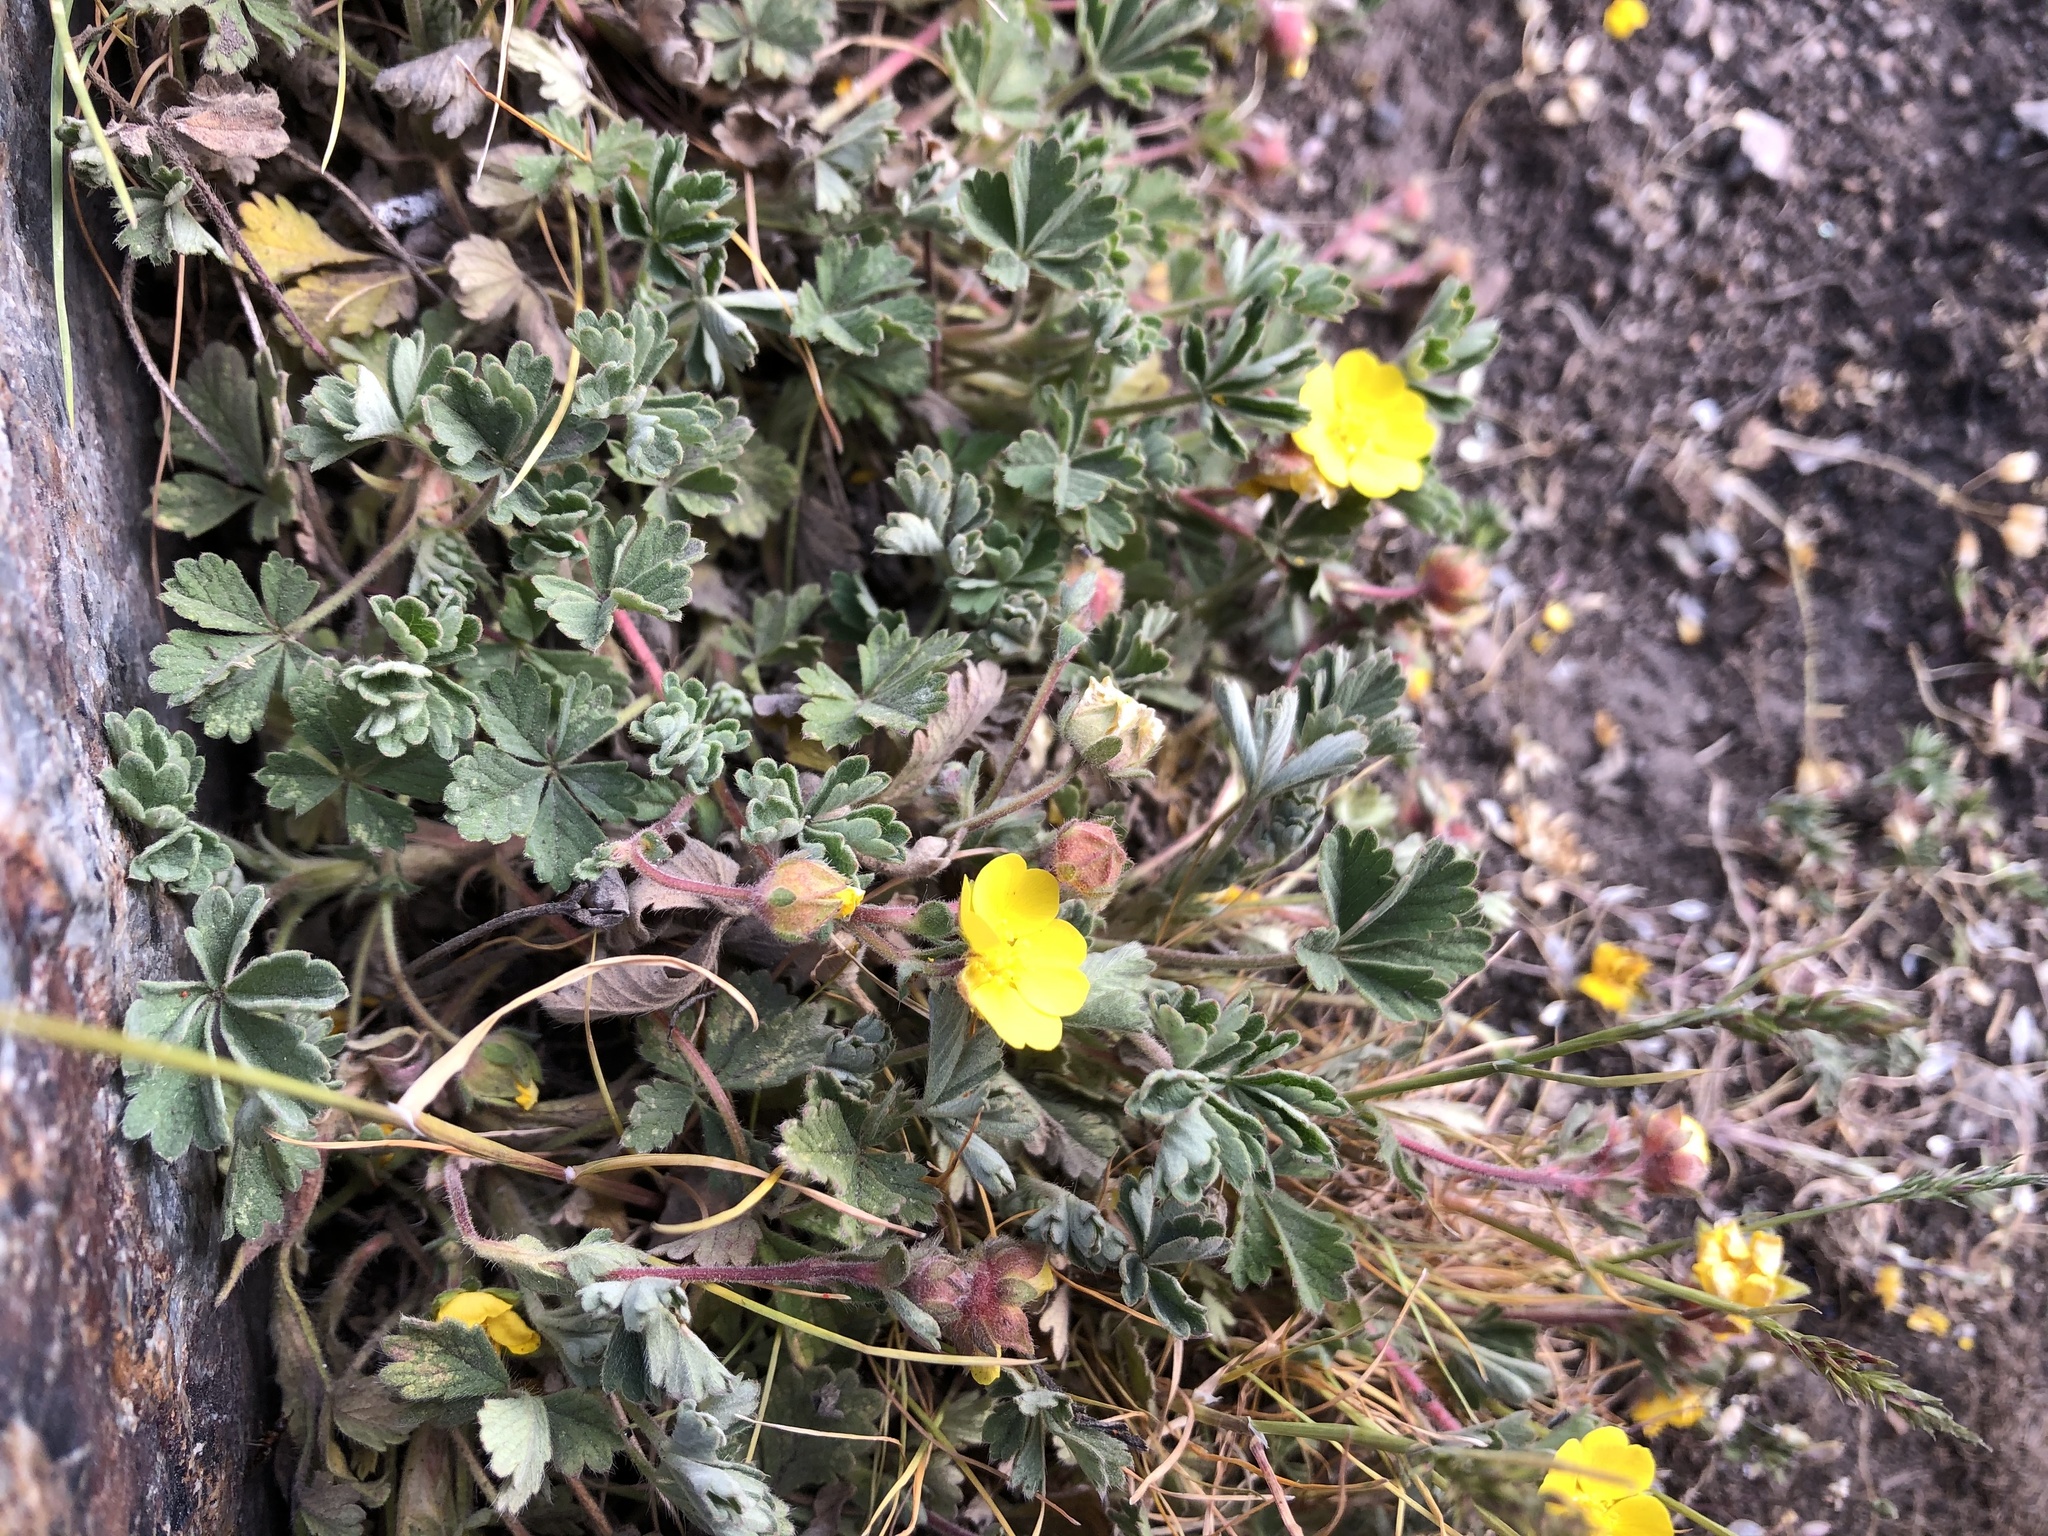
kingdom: Plantae
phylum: Tracheophyta
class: Magnoliopsida
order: Rosales
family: Rosaceae
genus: Potentilla
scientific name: Potentilla incana
